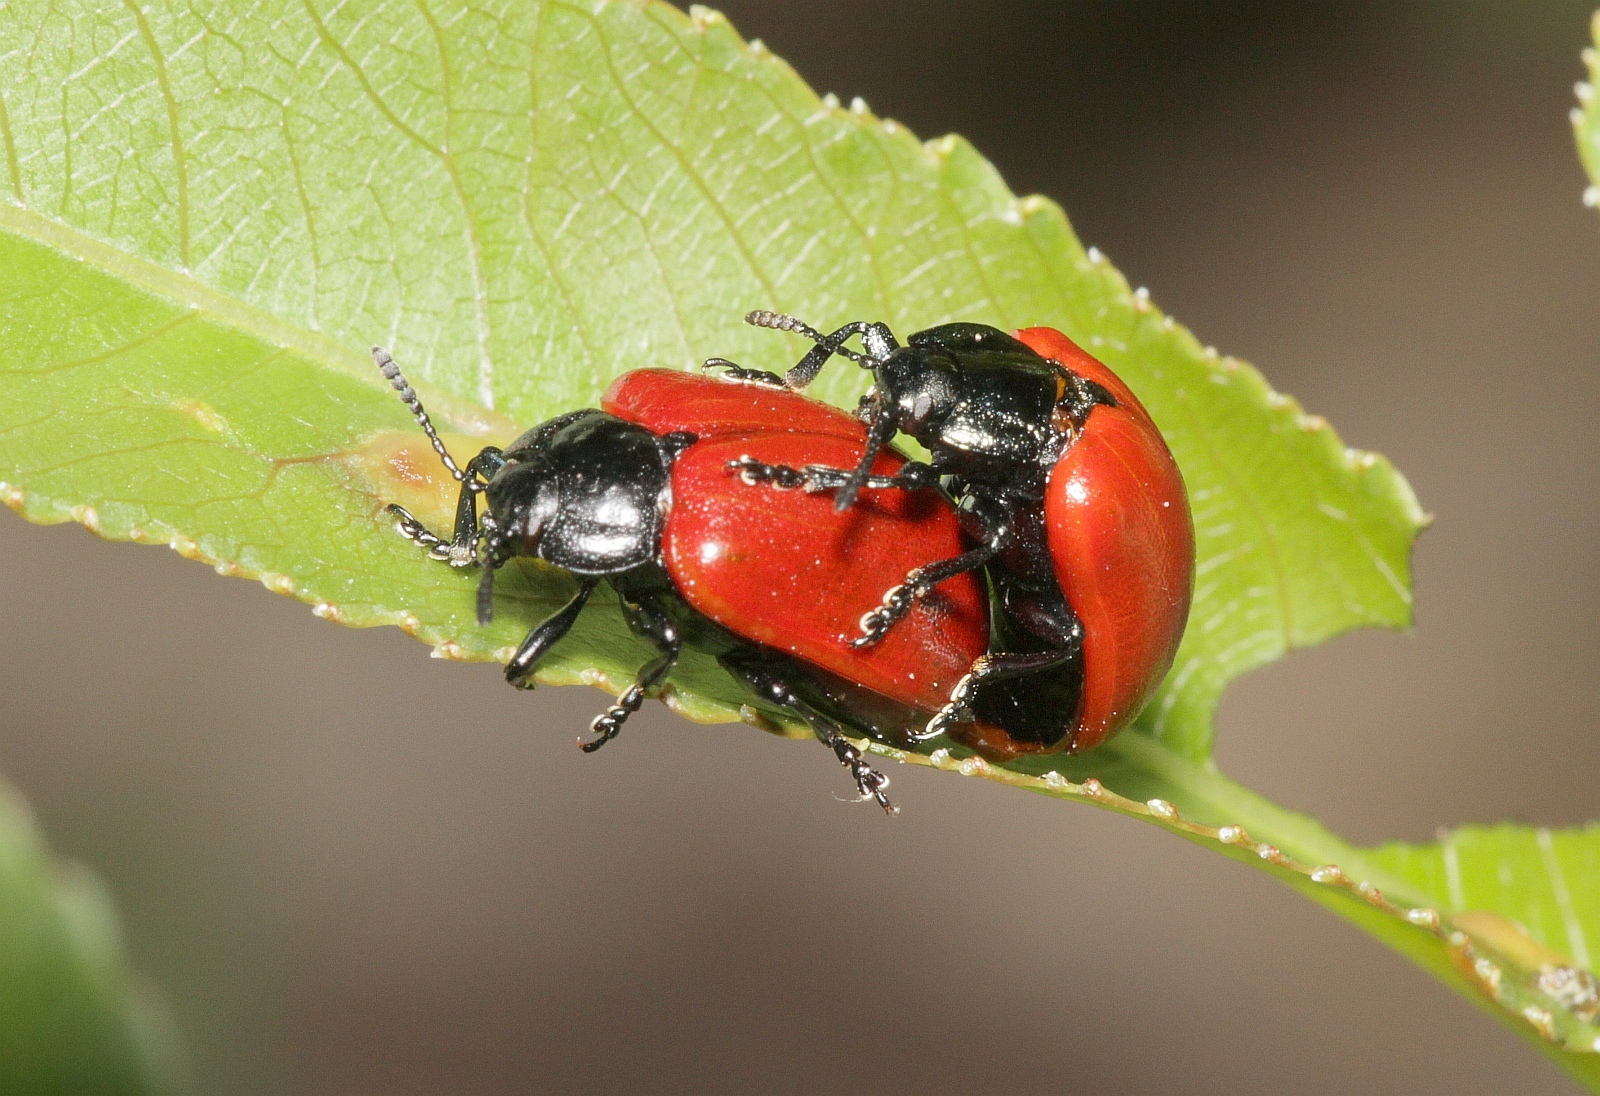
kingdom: Animalia
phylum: Arthropoda
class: Insecta
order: Coleoptera
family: Chrysomelidae
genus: Chrysomela
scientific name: Chrysomela populi
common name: Red poplar leaf beetle
